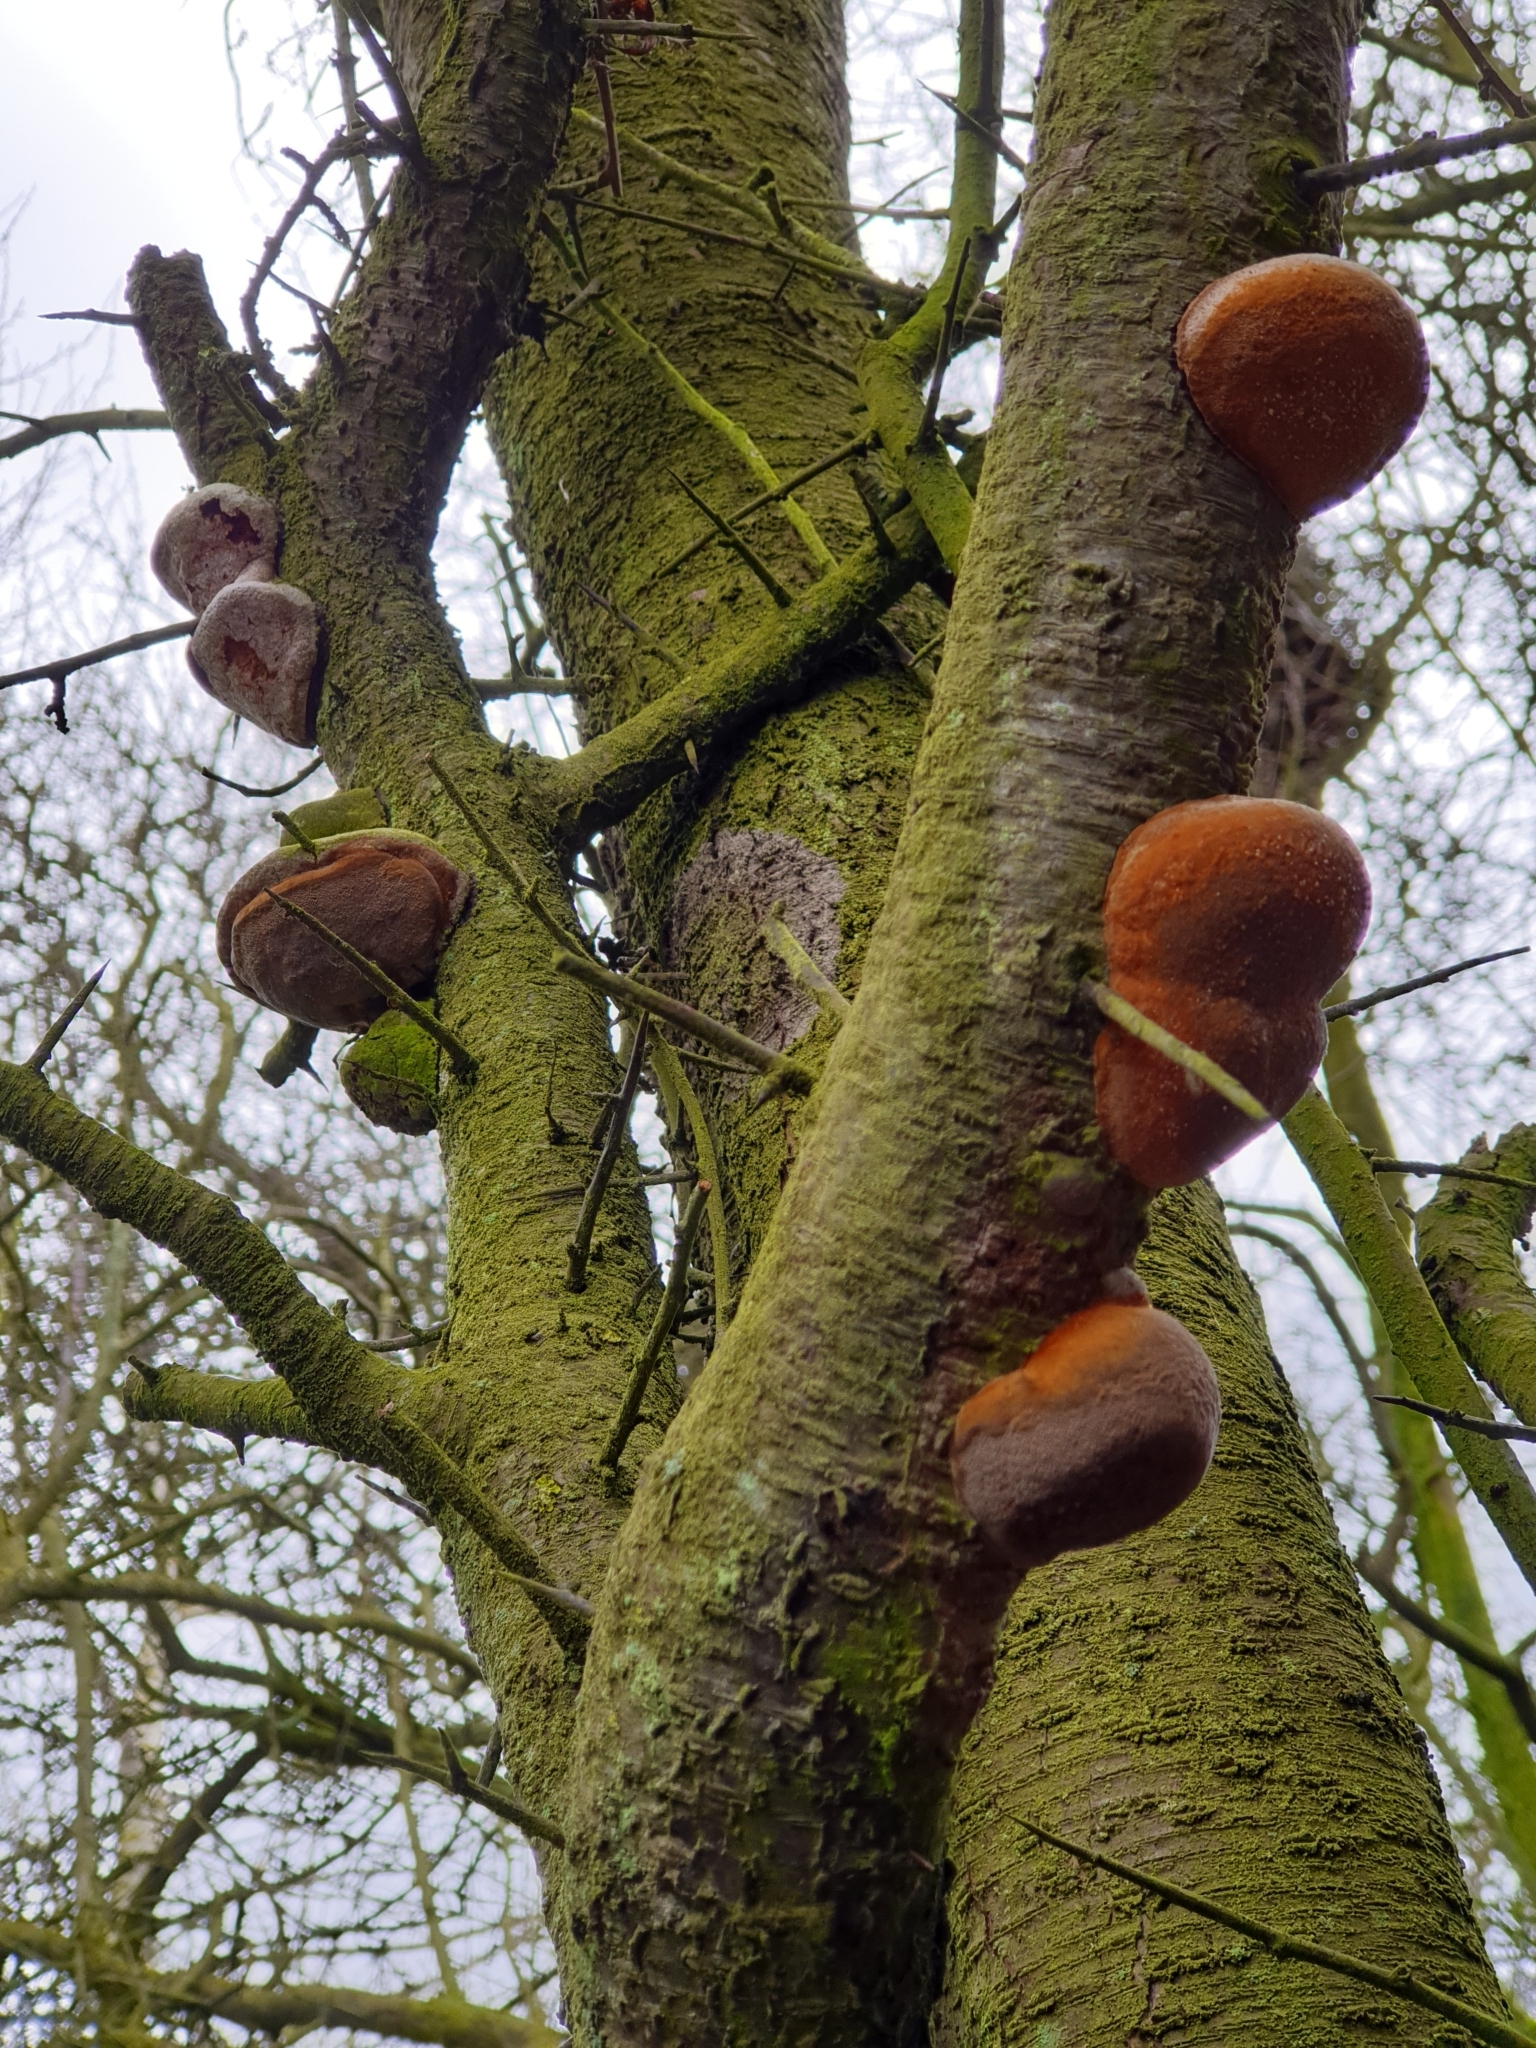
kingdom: Fungi
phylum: Basidiomycota
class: Agaricomycetes
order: Hymenochaetales
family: Hymenochaetaceae
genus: Phellinus
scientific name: Phellinus pomaceus
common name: Cushion bracket
